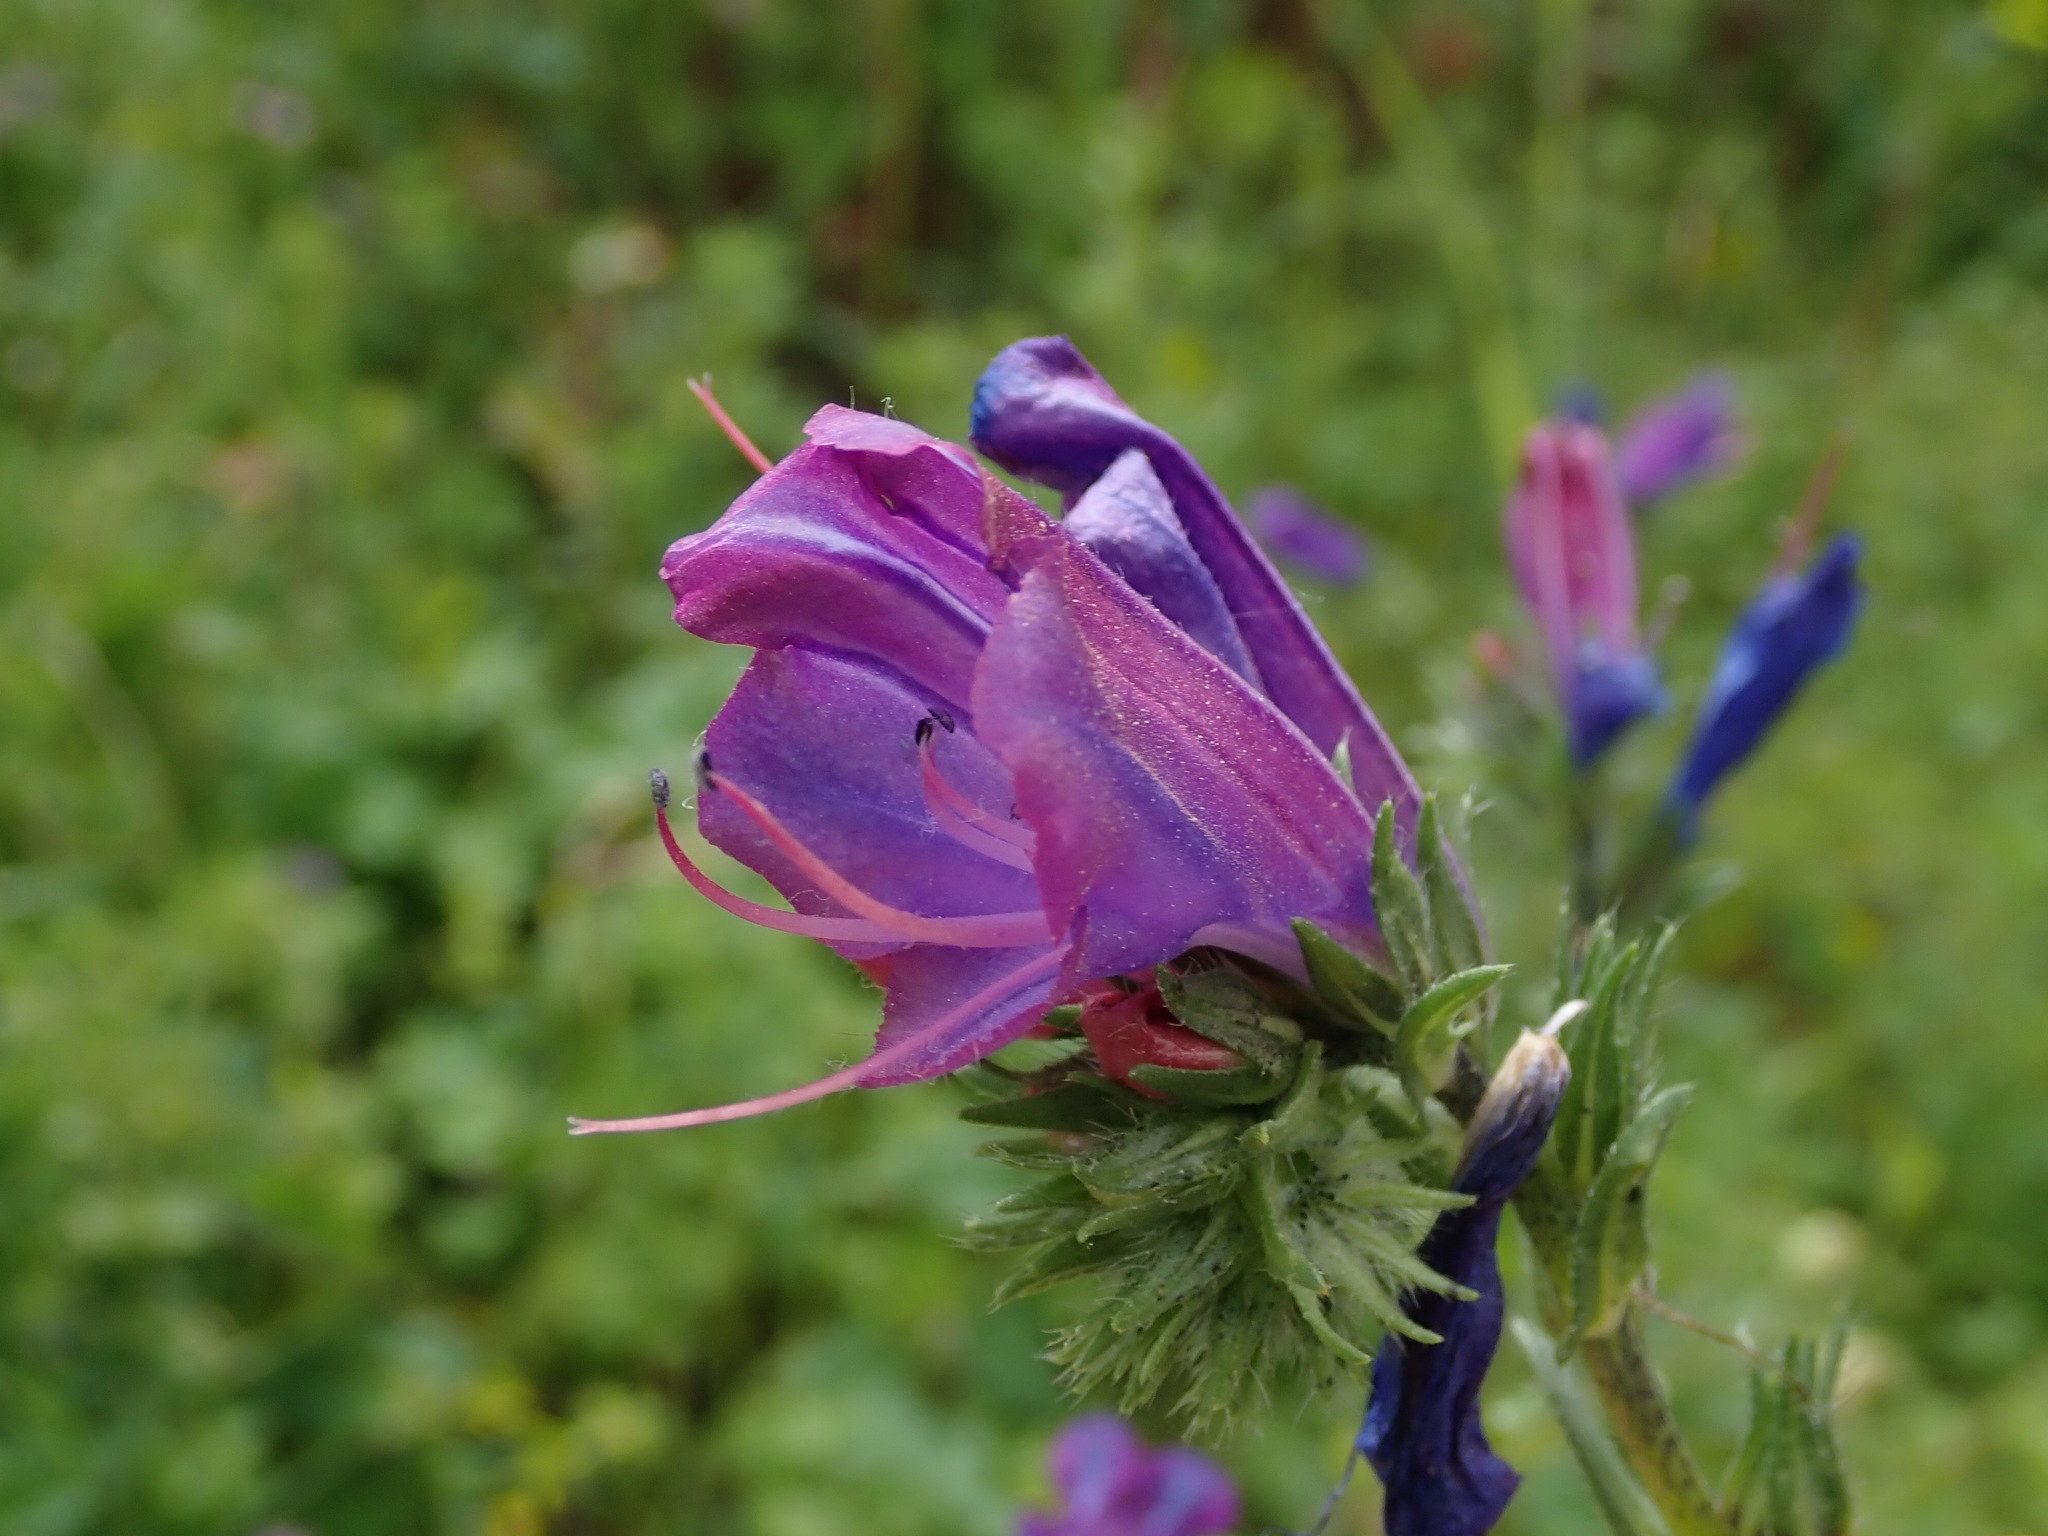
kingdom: Plantae
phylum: Tracheophyta
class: Magnoliopsida
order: Boraginales
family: Boraginaceae
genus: Echium
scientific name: Echium plantagineum
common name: Purple viper's-bugloss
